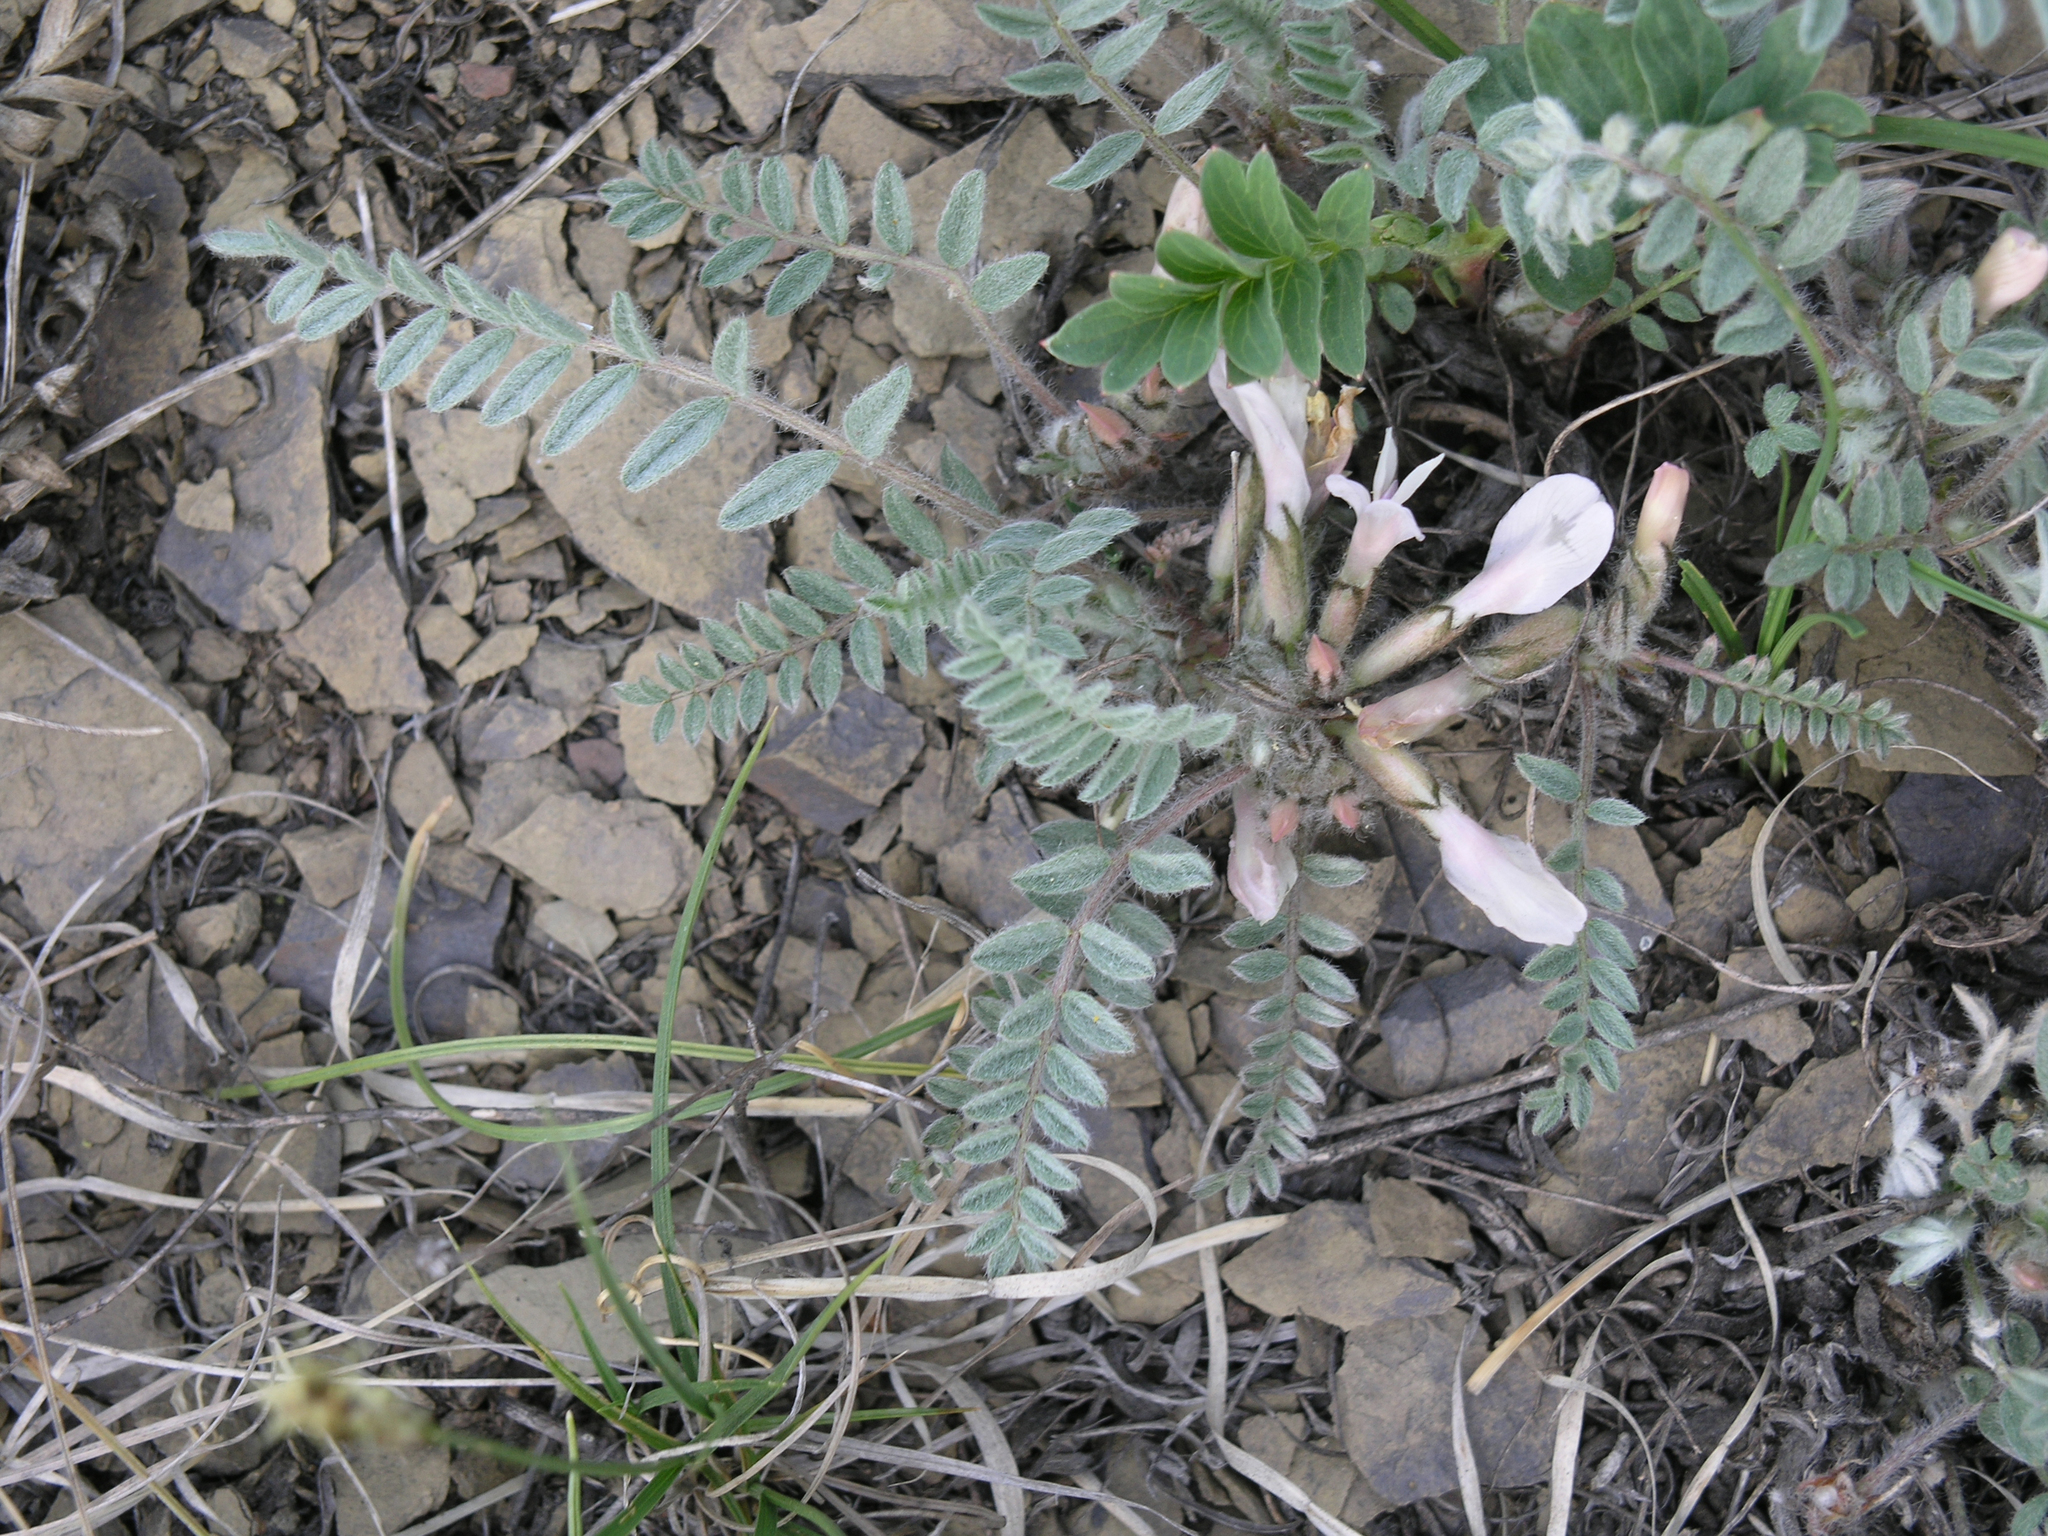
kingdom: Plantae
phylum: Tracheophyta
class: Magnoliopsida
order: Fabales
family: Fabaceae
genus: Astragalus
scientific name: Astragalus testiculatus
